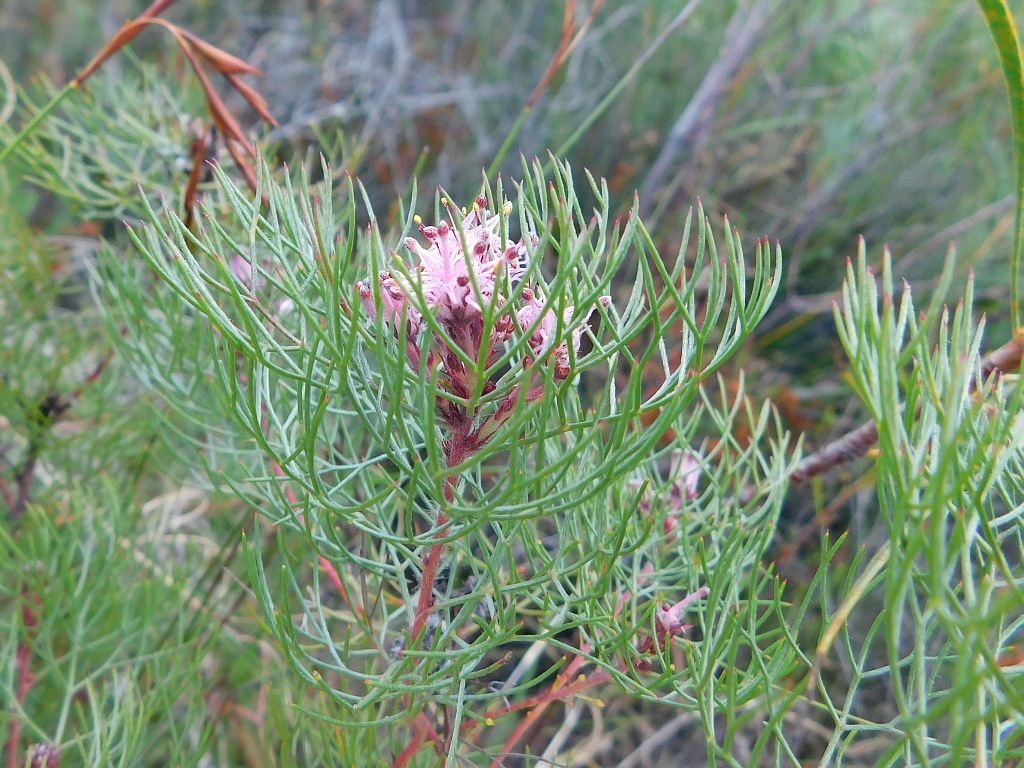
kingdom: Plantae
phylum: Tracheophyta
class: Magnoliopsida
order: Proteales
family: Proteaceae
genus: Serruria
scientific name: Serruria fasciflora
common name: Common pin spiderhead
